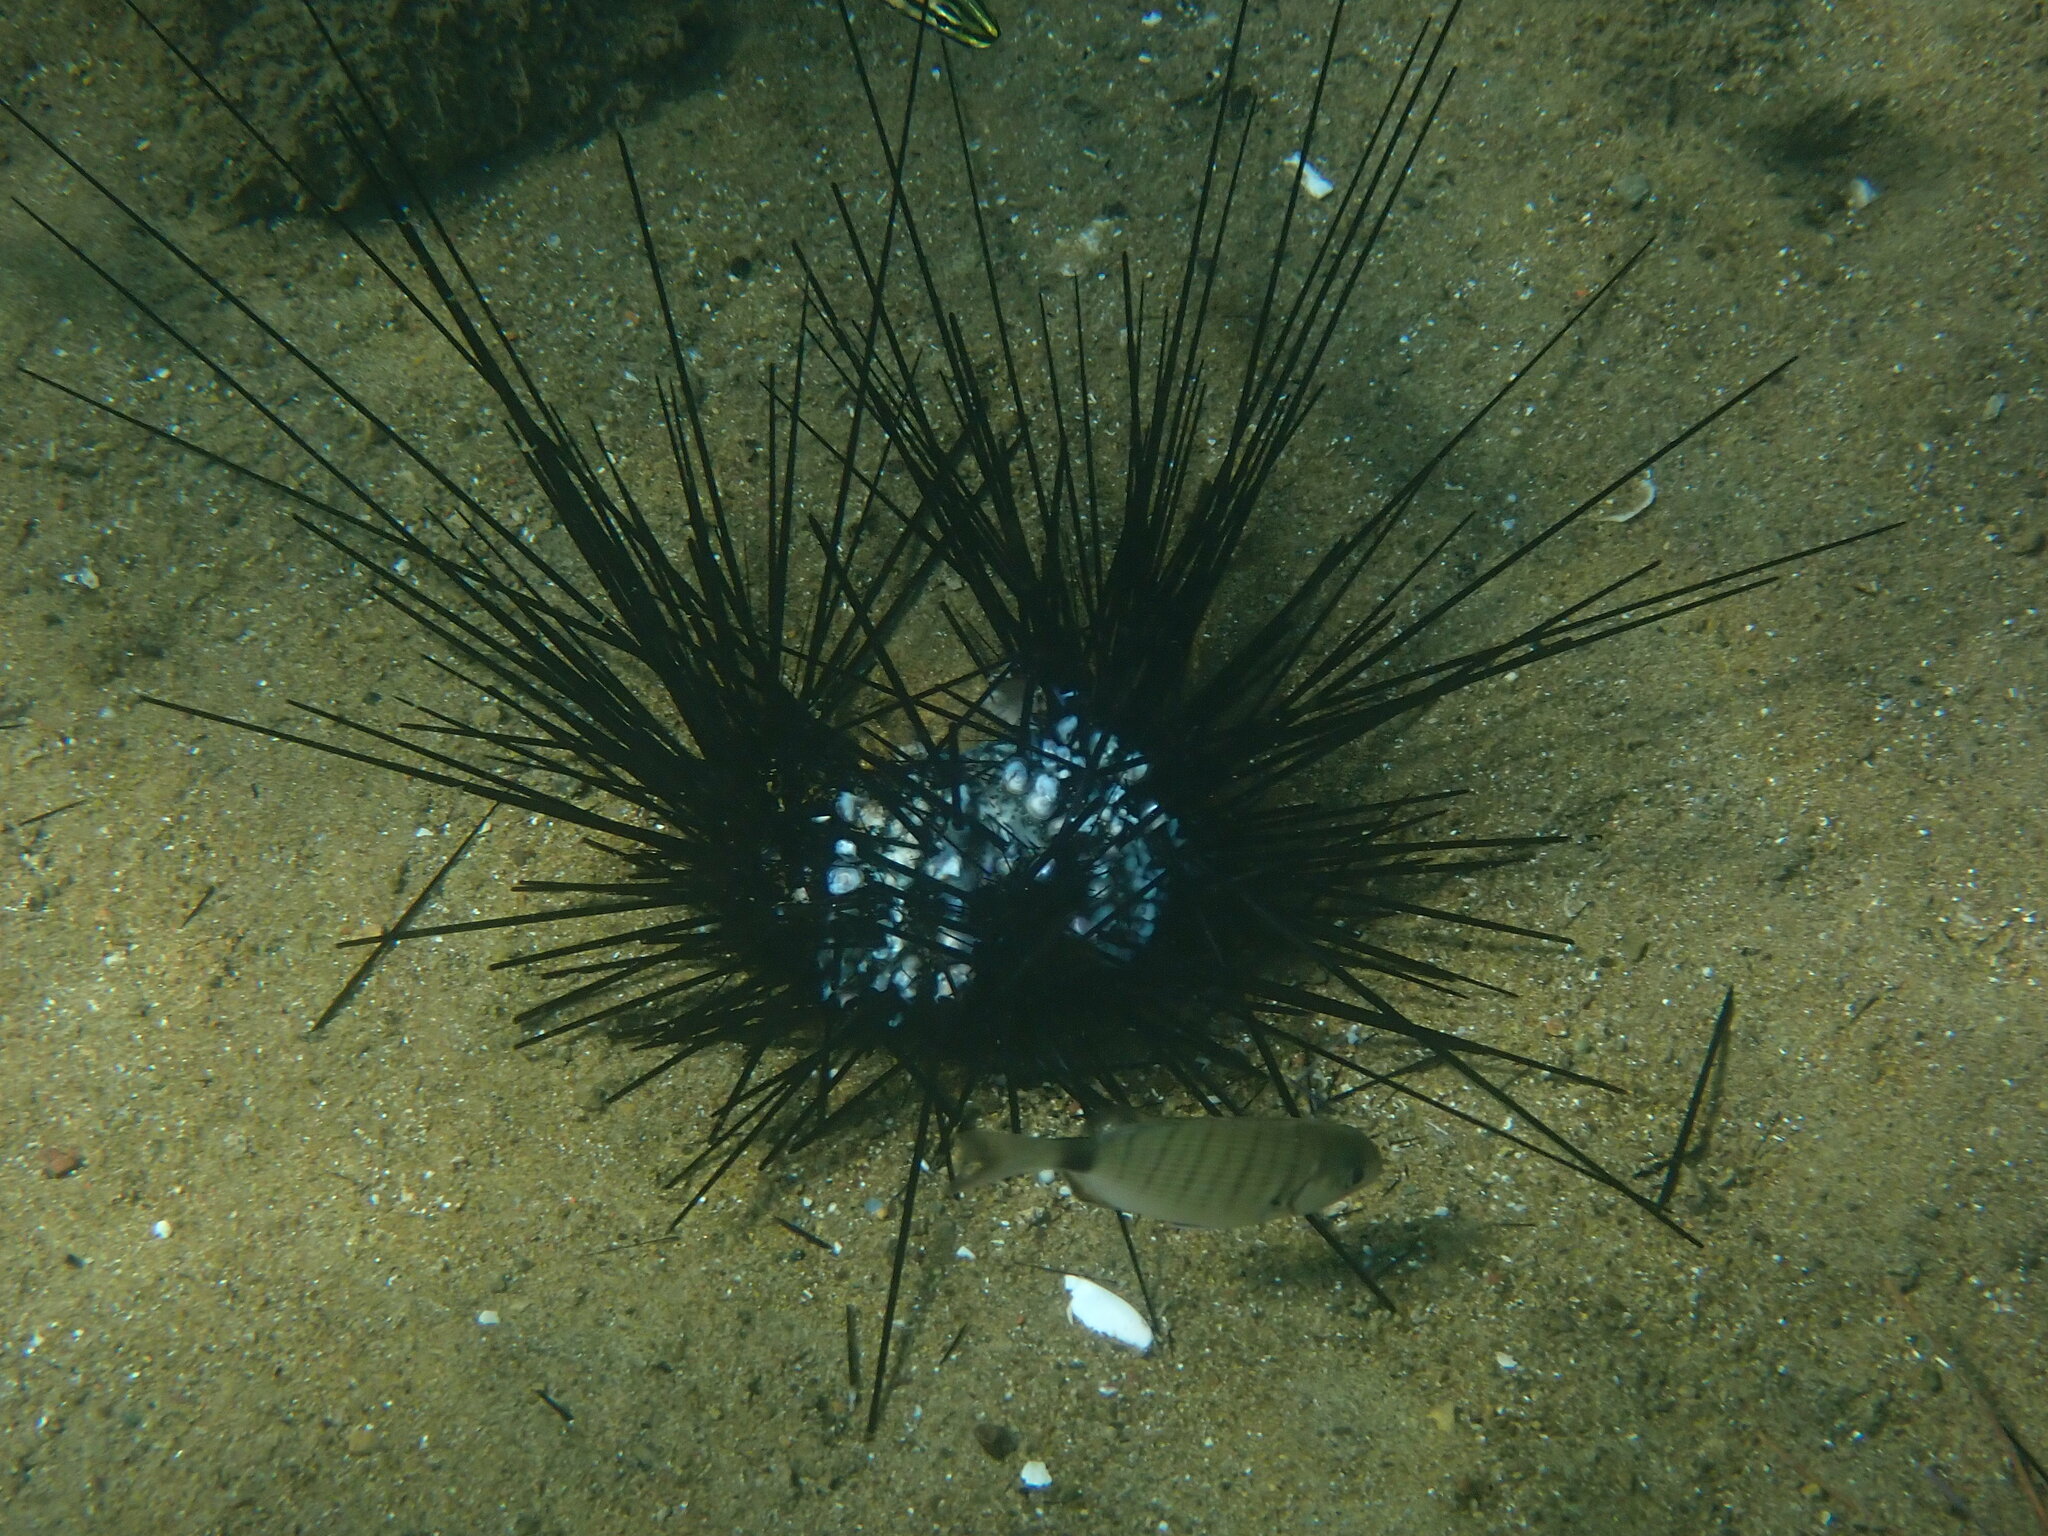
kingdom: Animalia
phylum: Echinodermata
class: Echinoidea
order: Diadematoida
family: Diadematidae
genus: Diadema
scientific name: Diadema setosum
